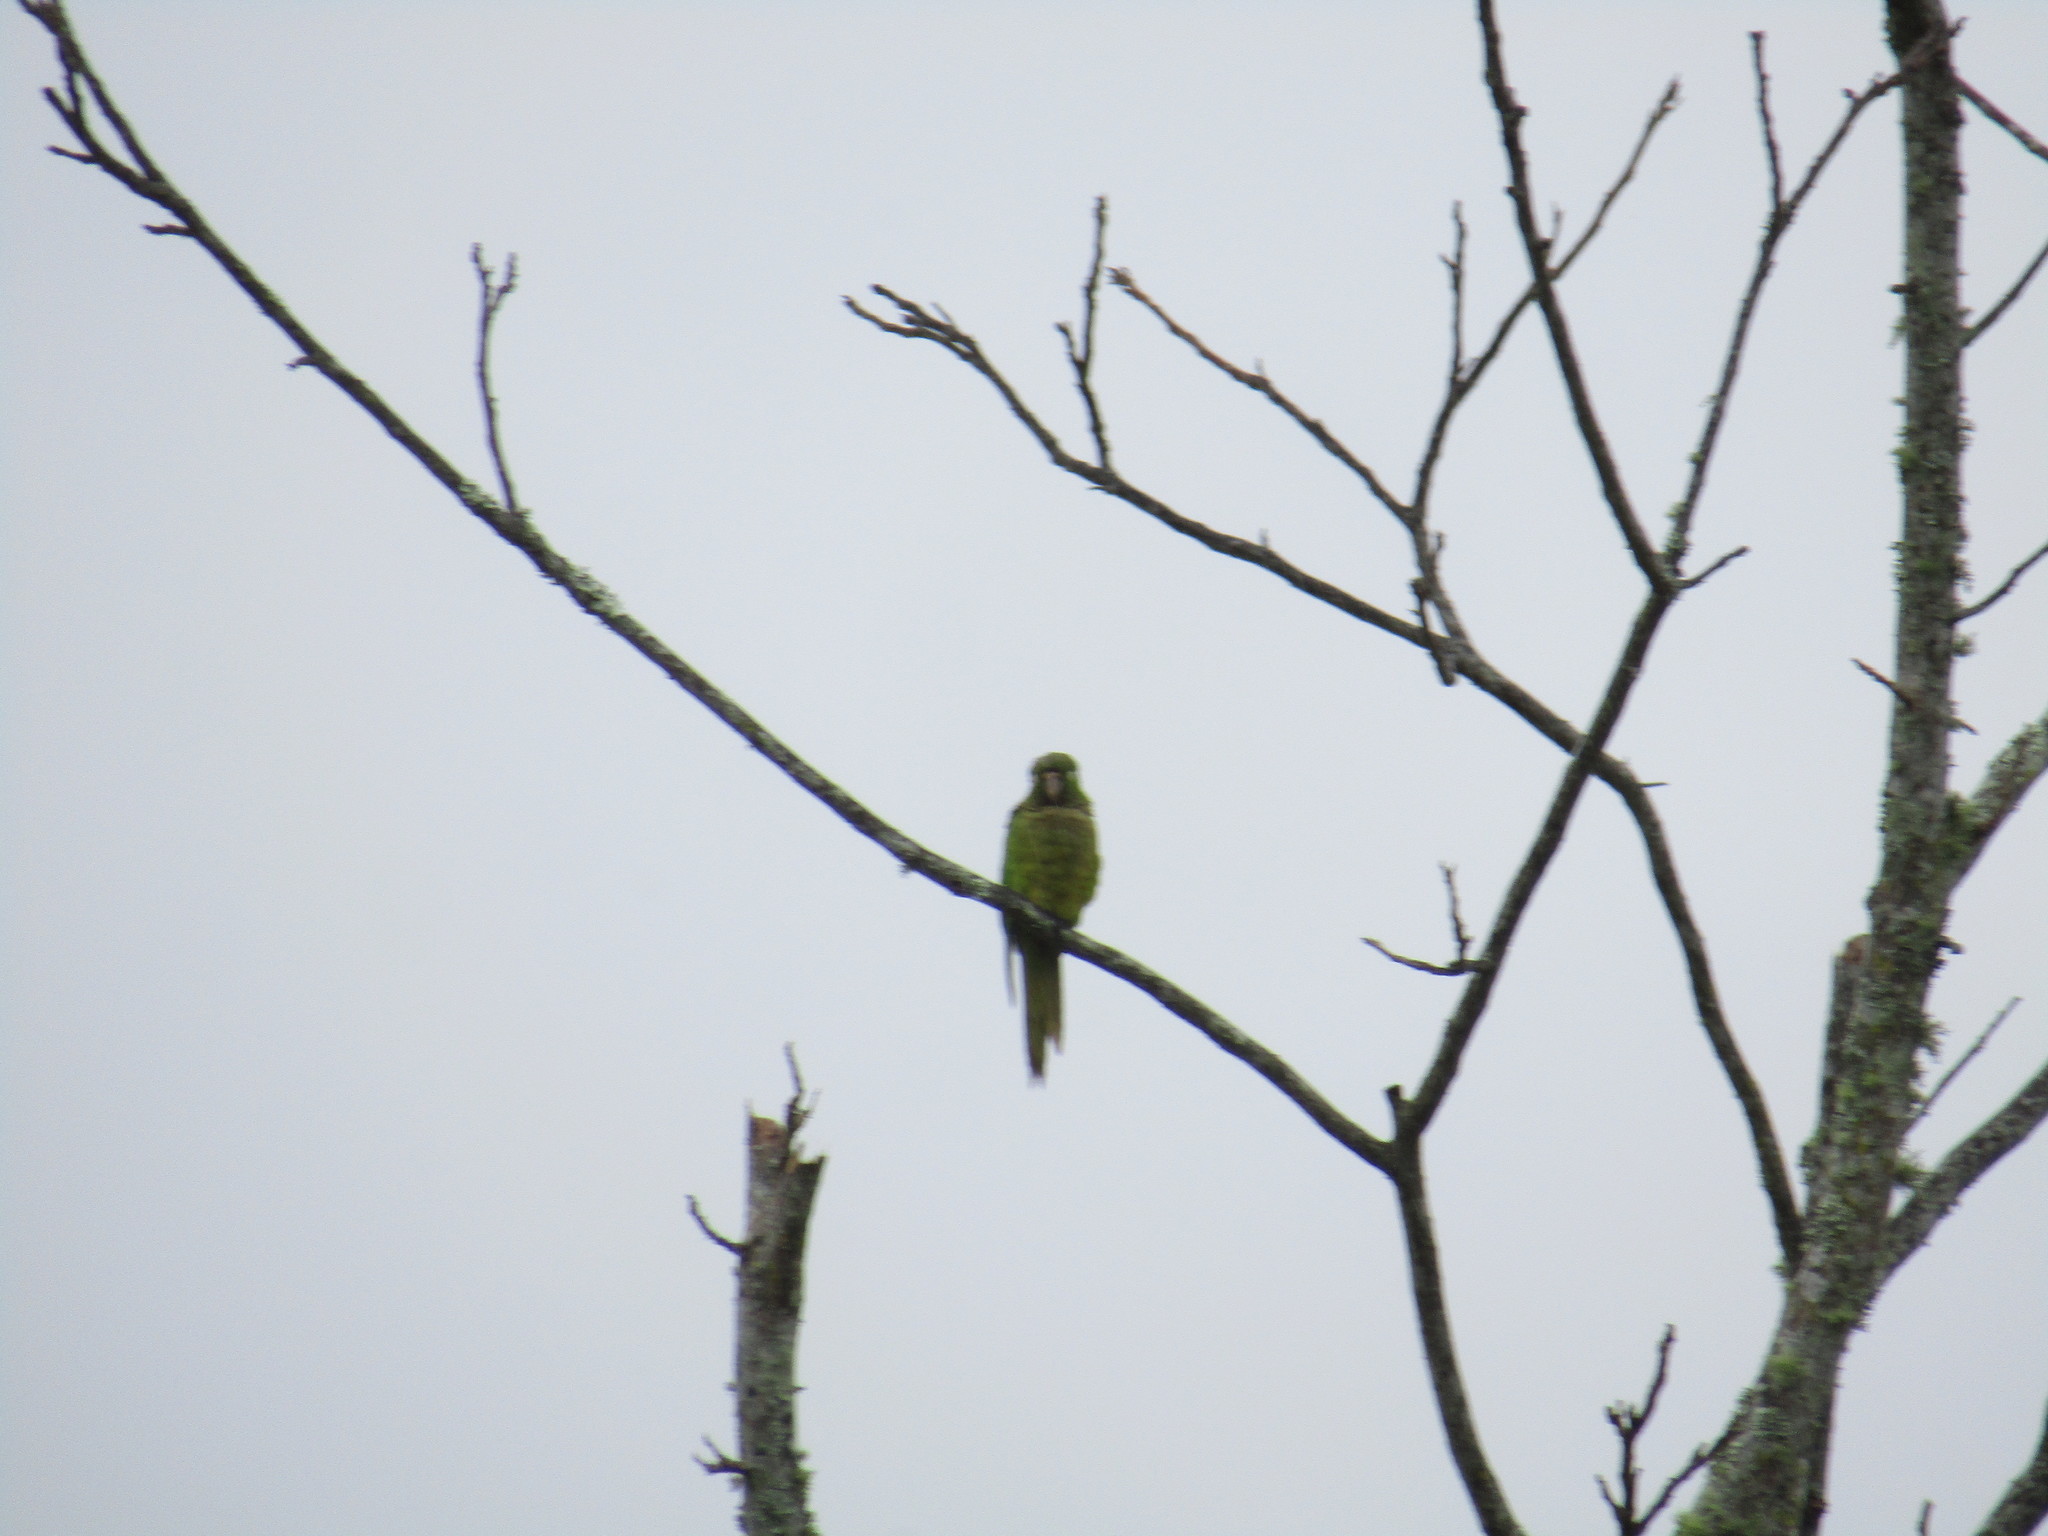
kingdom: Animalia
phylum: Chordata
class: Aves
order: Psittaciformes
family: Psittacidae
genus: Aratinga
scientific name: Aratinga nana
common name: Olive-throated parakeet
